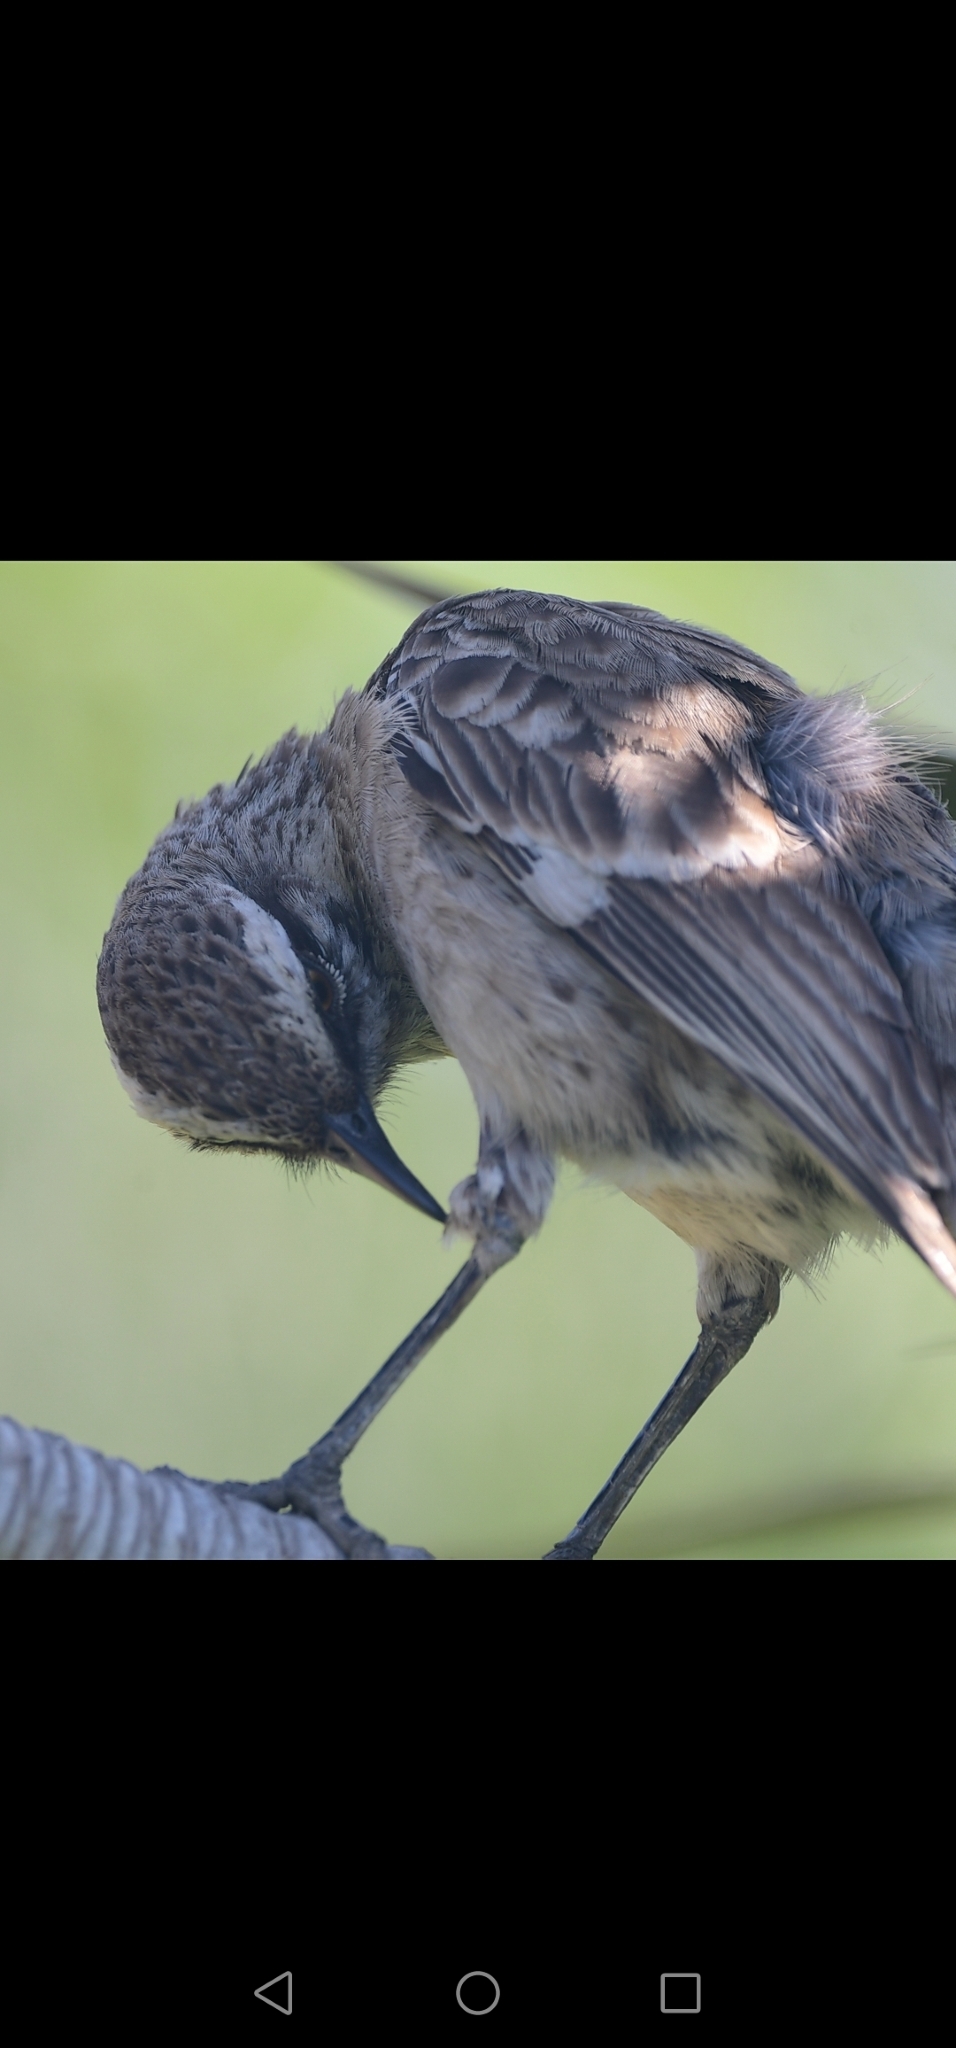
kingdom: Animalia
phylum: Chordata
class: Aves
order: Passeriformes
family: Mimidae
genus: Mimus
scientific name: Mimus longicaudatus
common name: Long-tailed mockingbird
